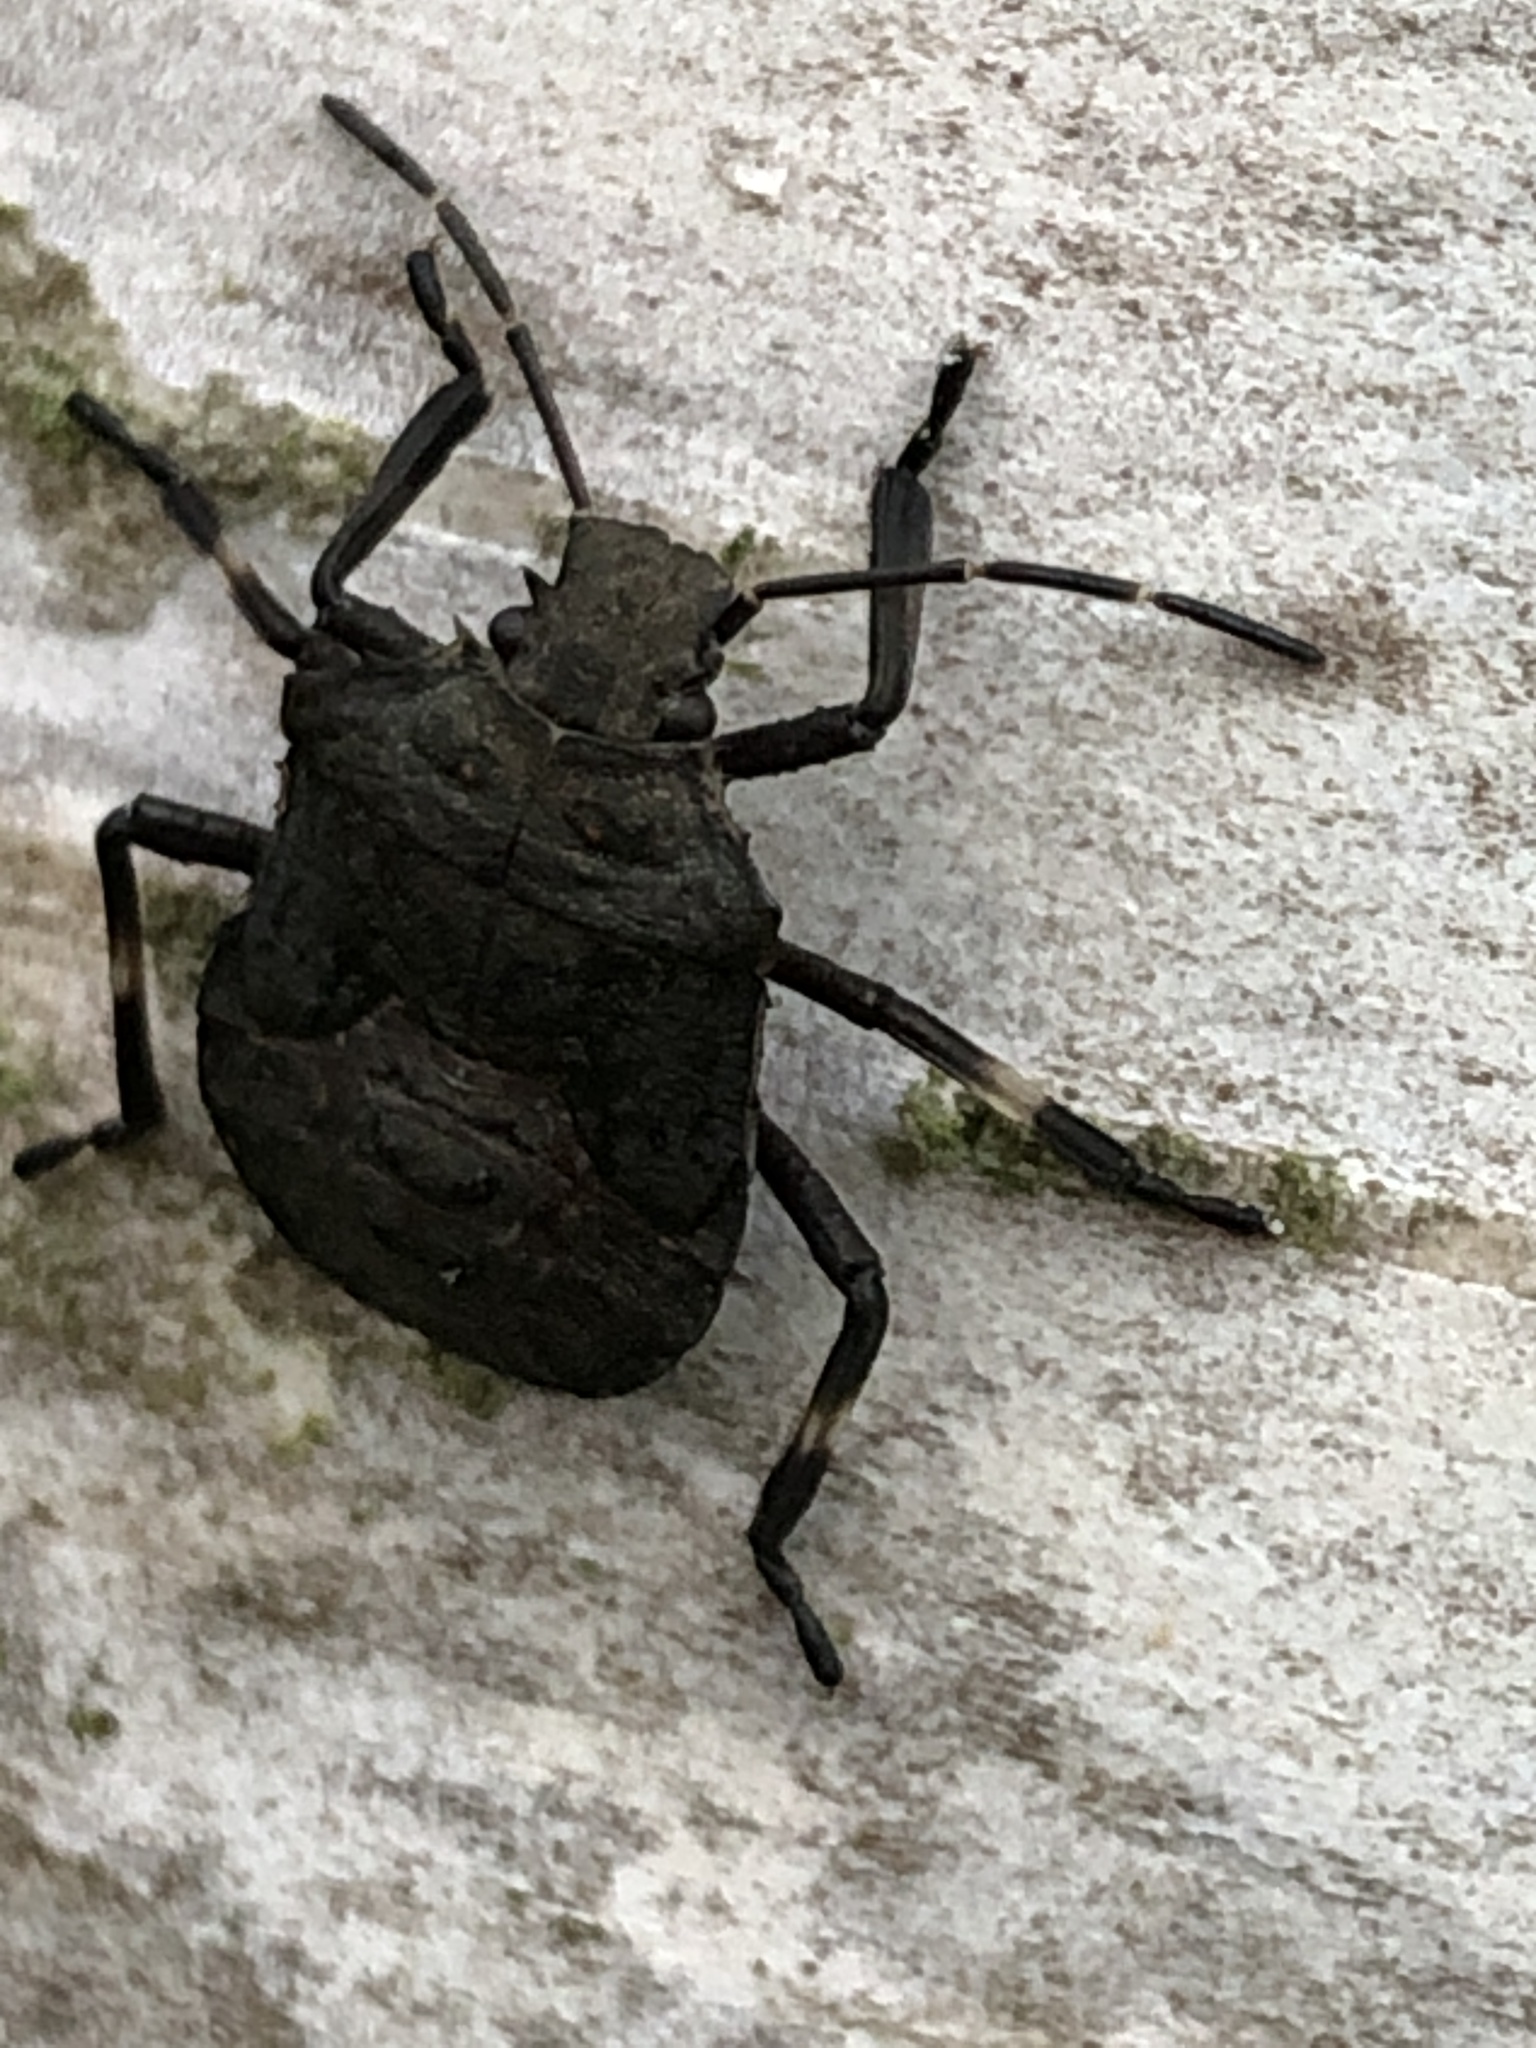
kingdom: Animalia
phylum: Arthropoda
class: Insecta
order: Hemiptera
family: Pentatomidae
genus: Halyomorpha
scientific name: Halyomorpha halys
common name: Brown marmorated stink bug
